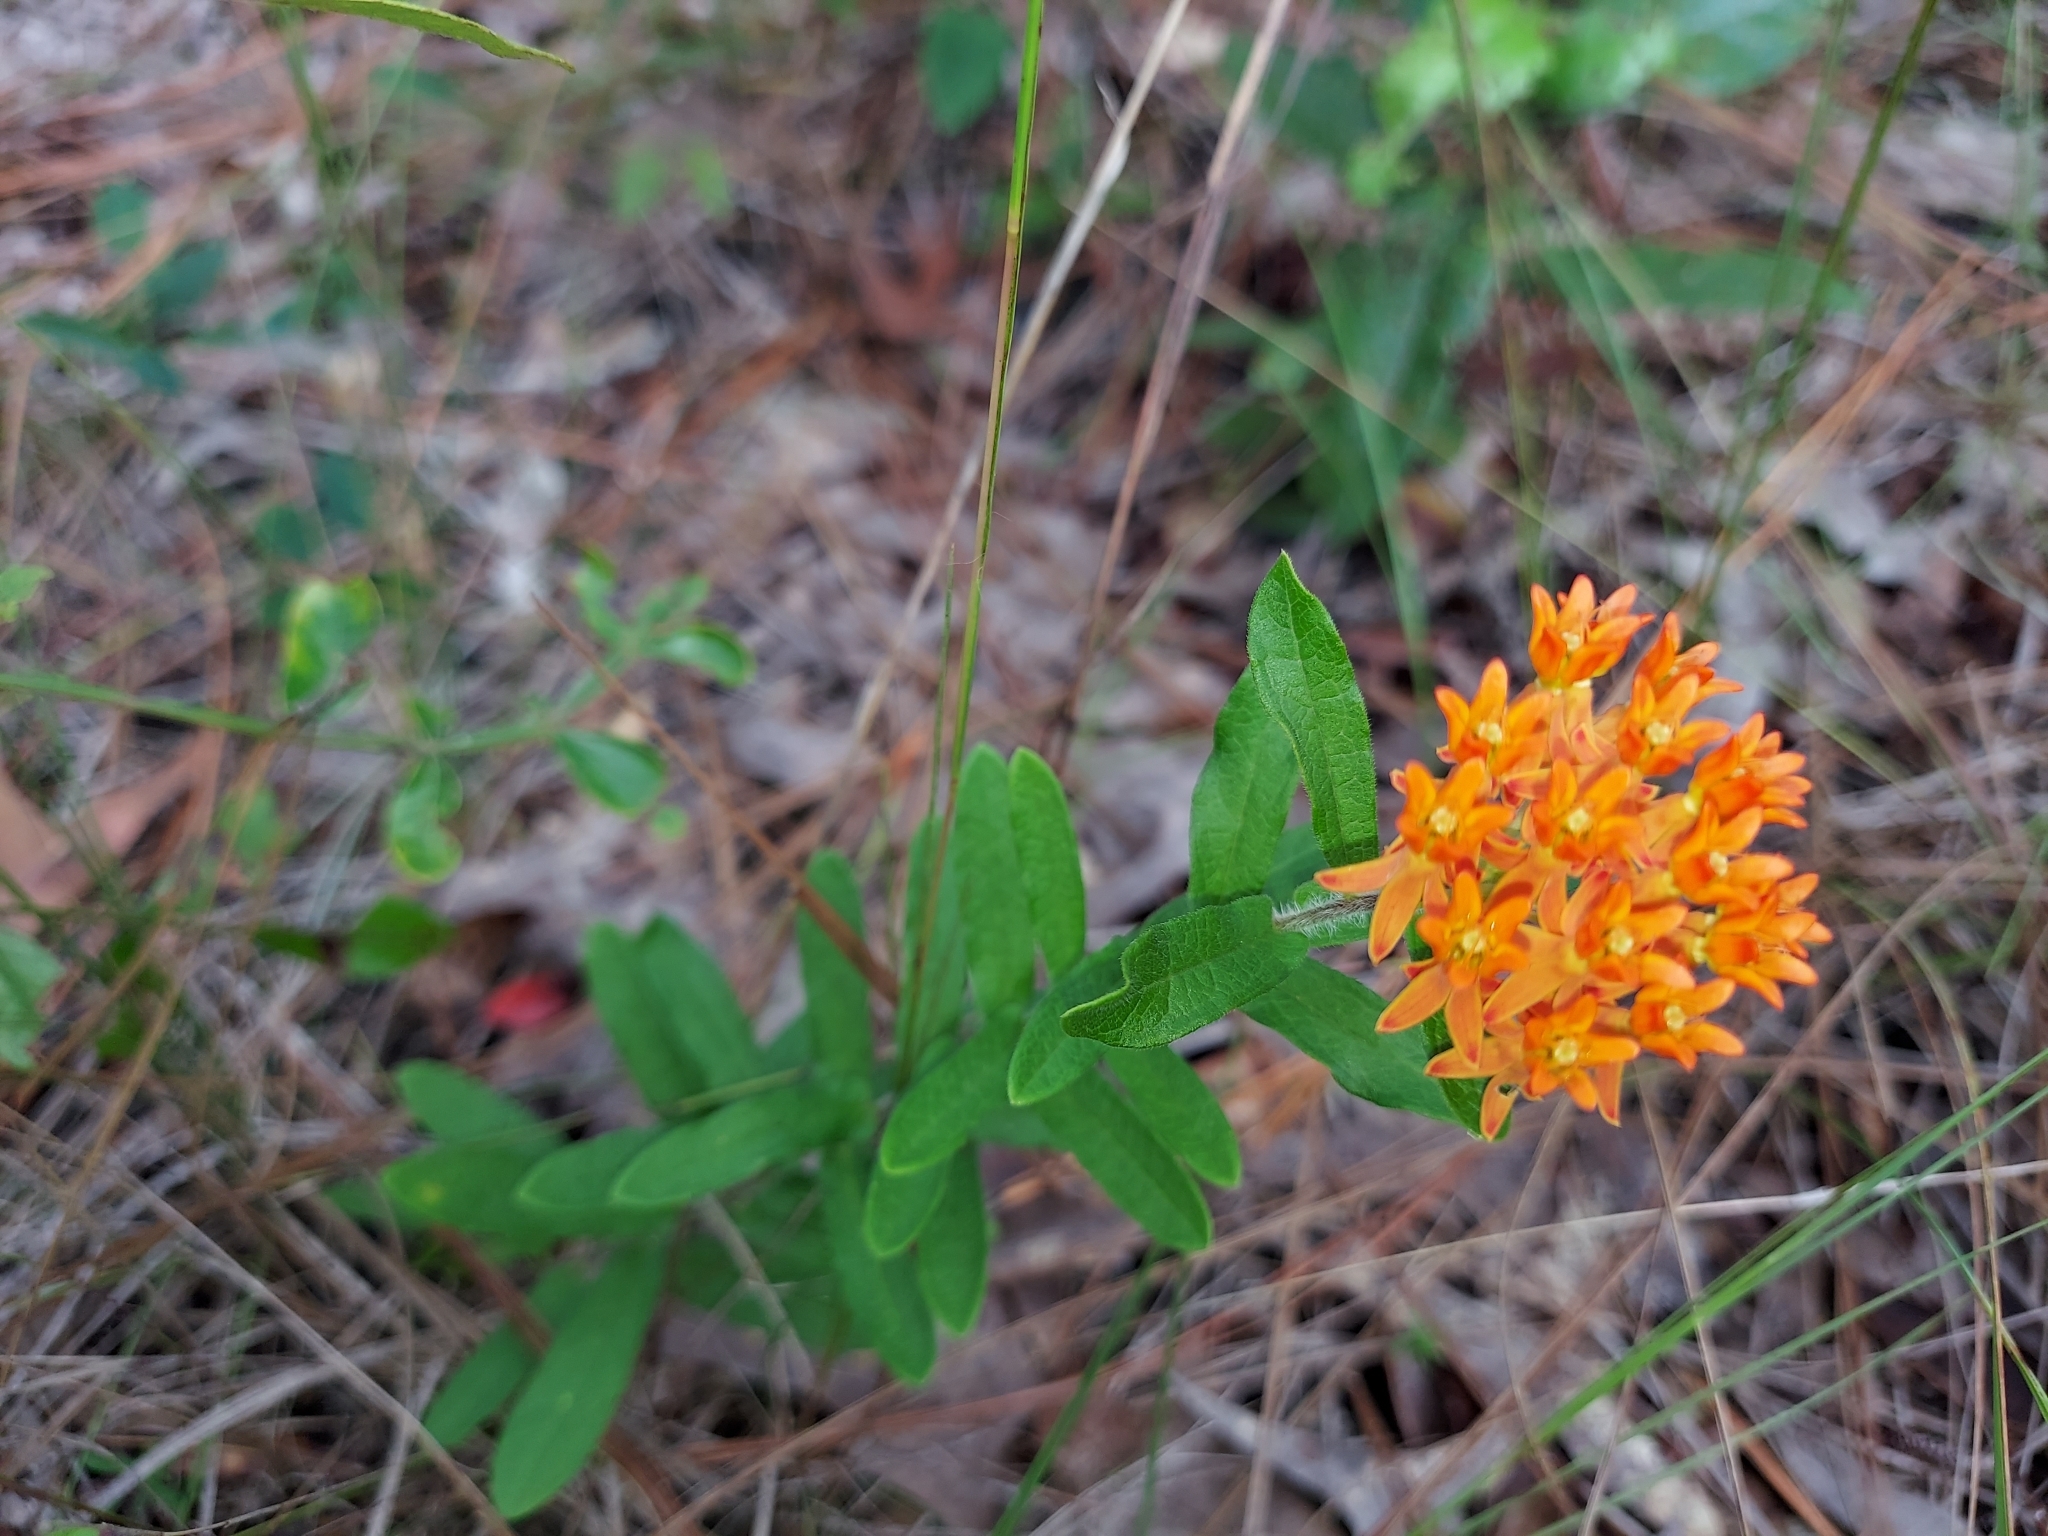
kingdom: Plantae
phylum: Tracheophyta
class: Magnoliopsida
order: Gentianales
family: Apocynaceae
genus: Asclepias
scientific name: Asclepias tuberosa
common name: Butterfly milkweed
